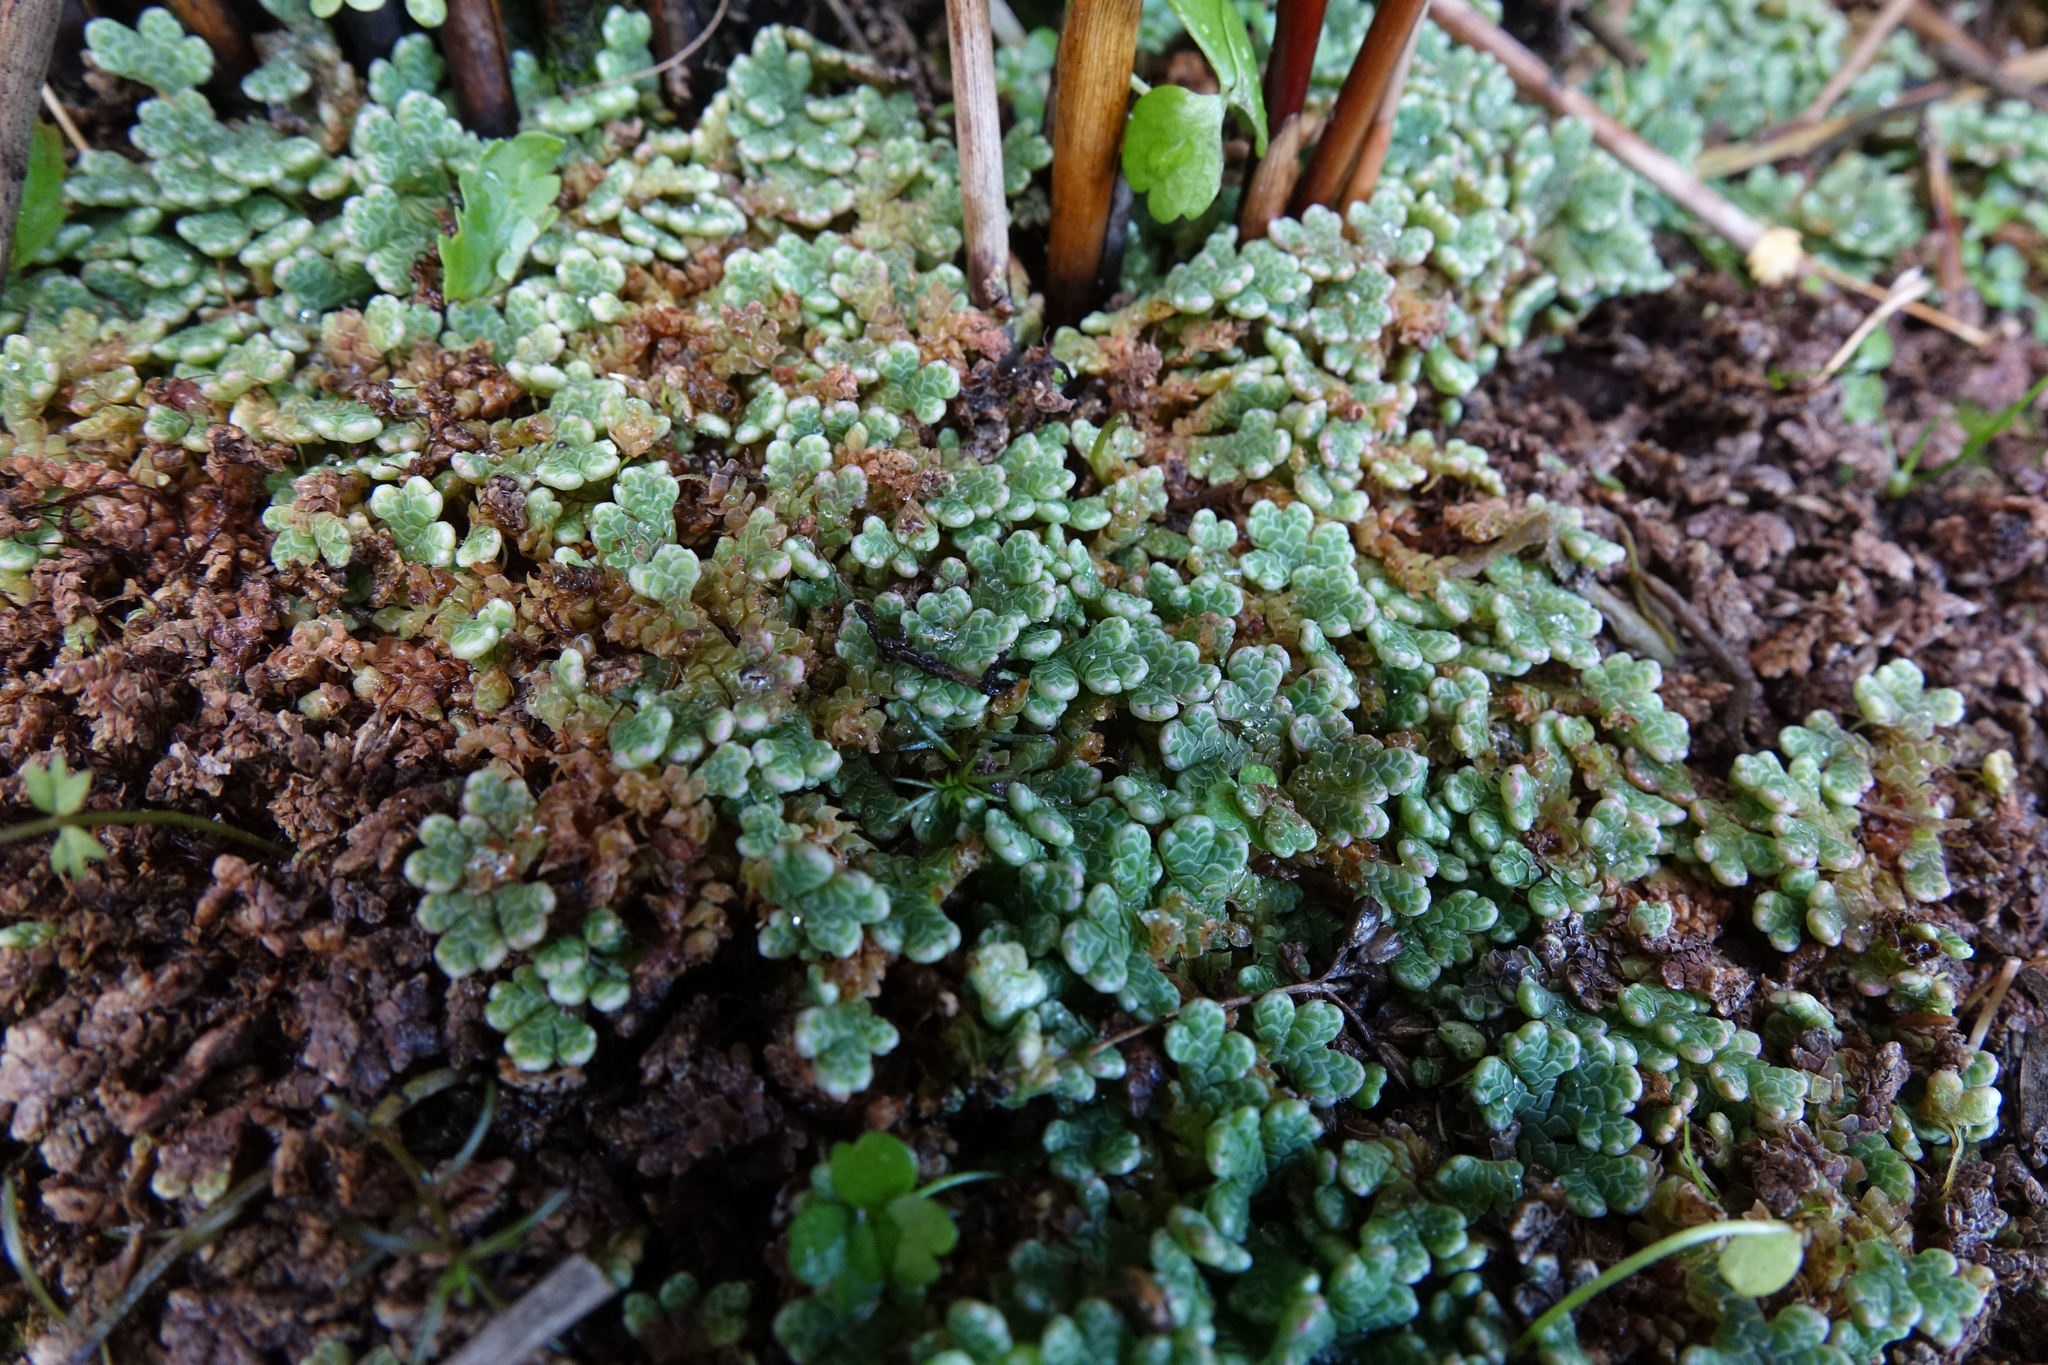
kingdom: Plantae
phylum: Tracheophyta
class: Polypodiopsida
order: Salviniales
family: Salviniaceae
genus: Azolla
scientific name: Azolla rubra
